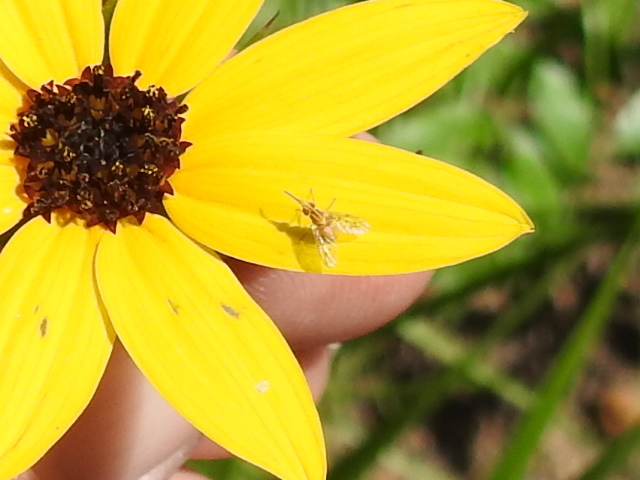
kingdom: Animalia
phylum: Arthropoda
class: Insecta
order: Diptera
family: Bombyliidae
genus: Poecilognathus
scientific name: Poecilognathus unimaculatus
